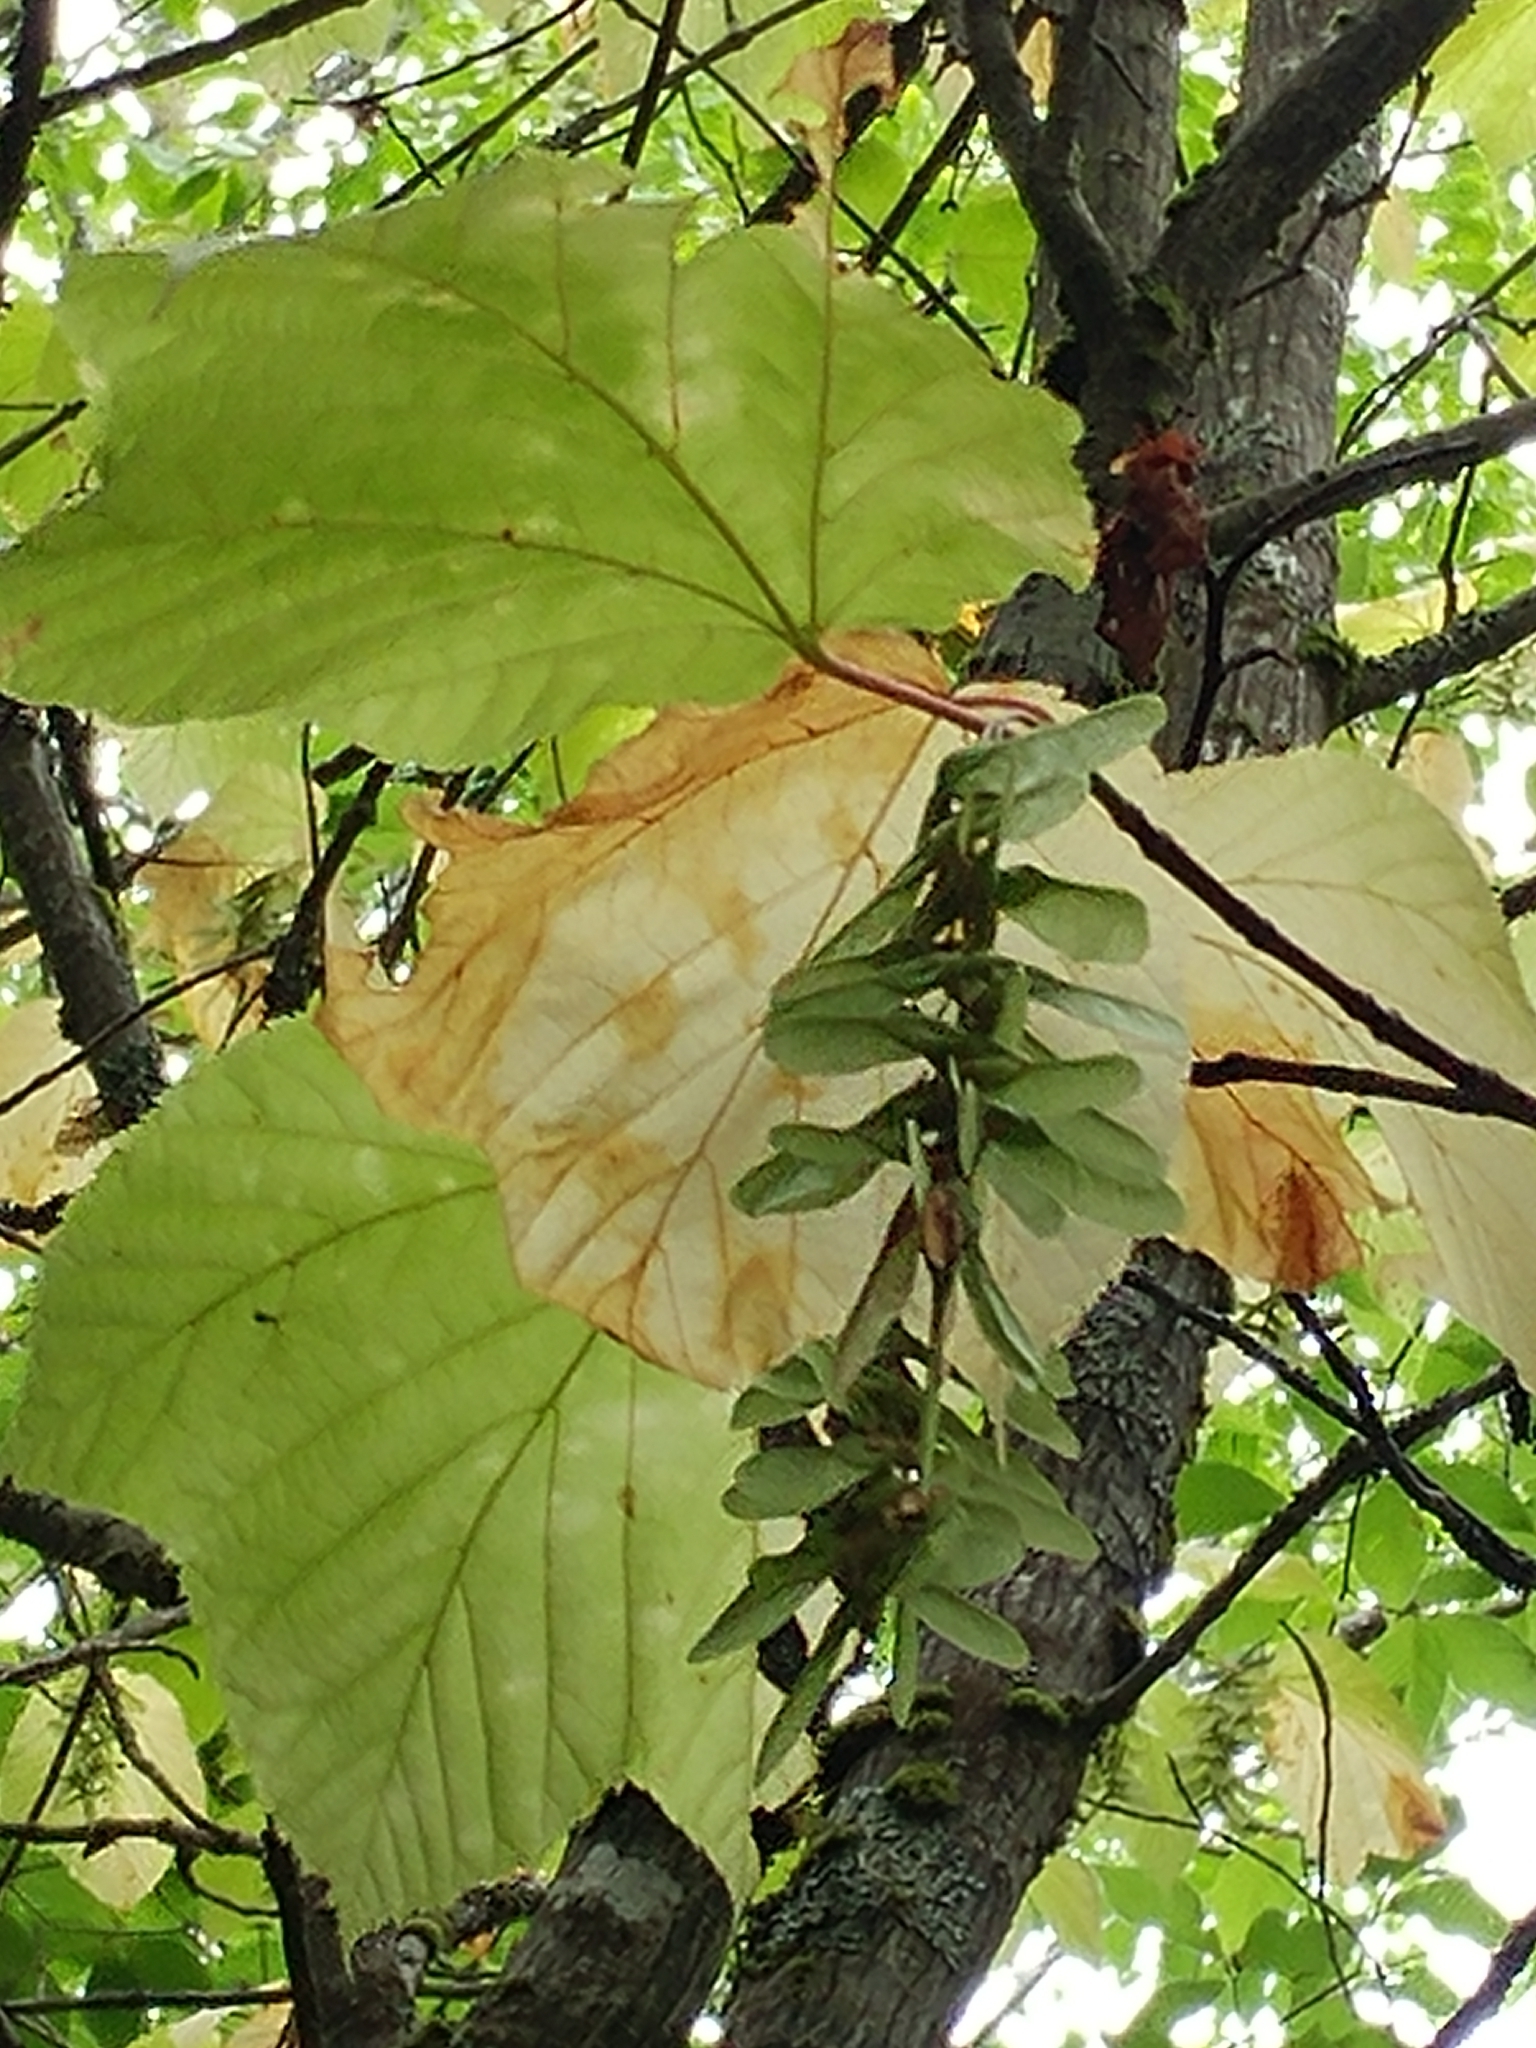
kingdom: Plantae
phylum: Tracheophyta
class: Magnoliopsida
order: Sapindales
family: Sapindaceae
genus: Acer
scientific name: Acer pensylvanicum
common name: Moosewood
